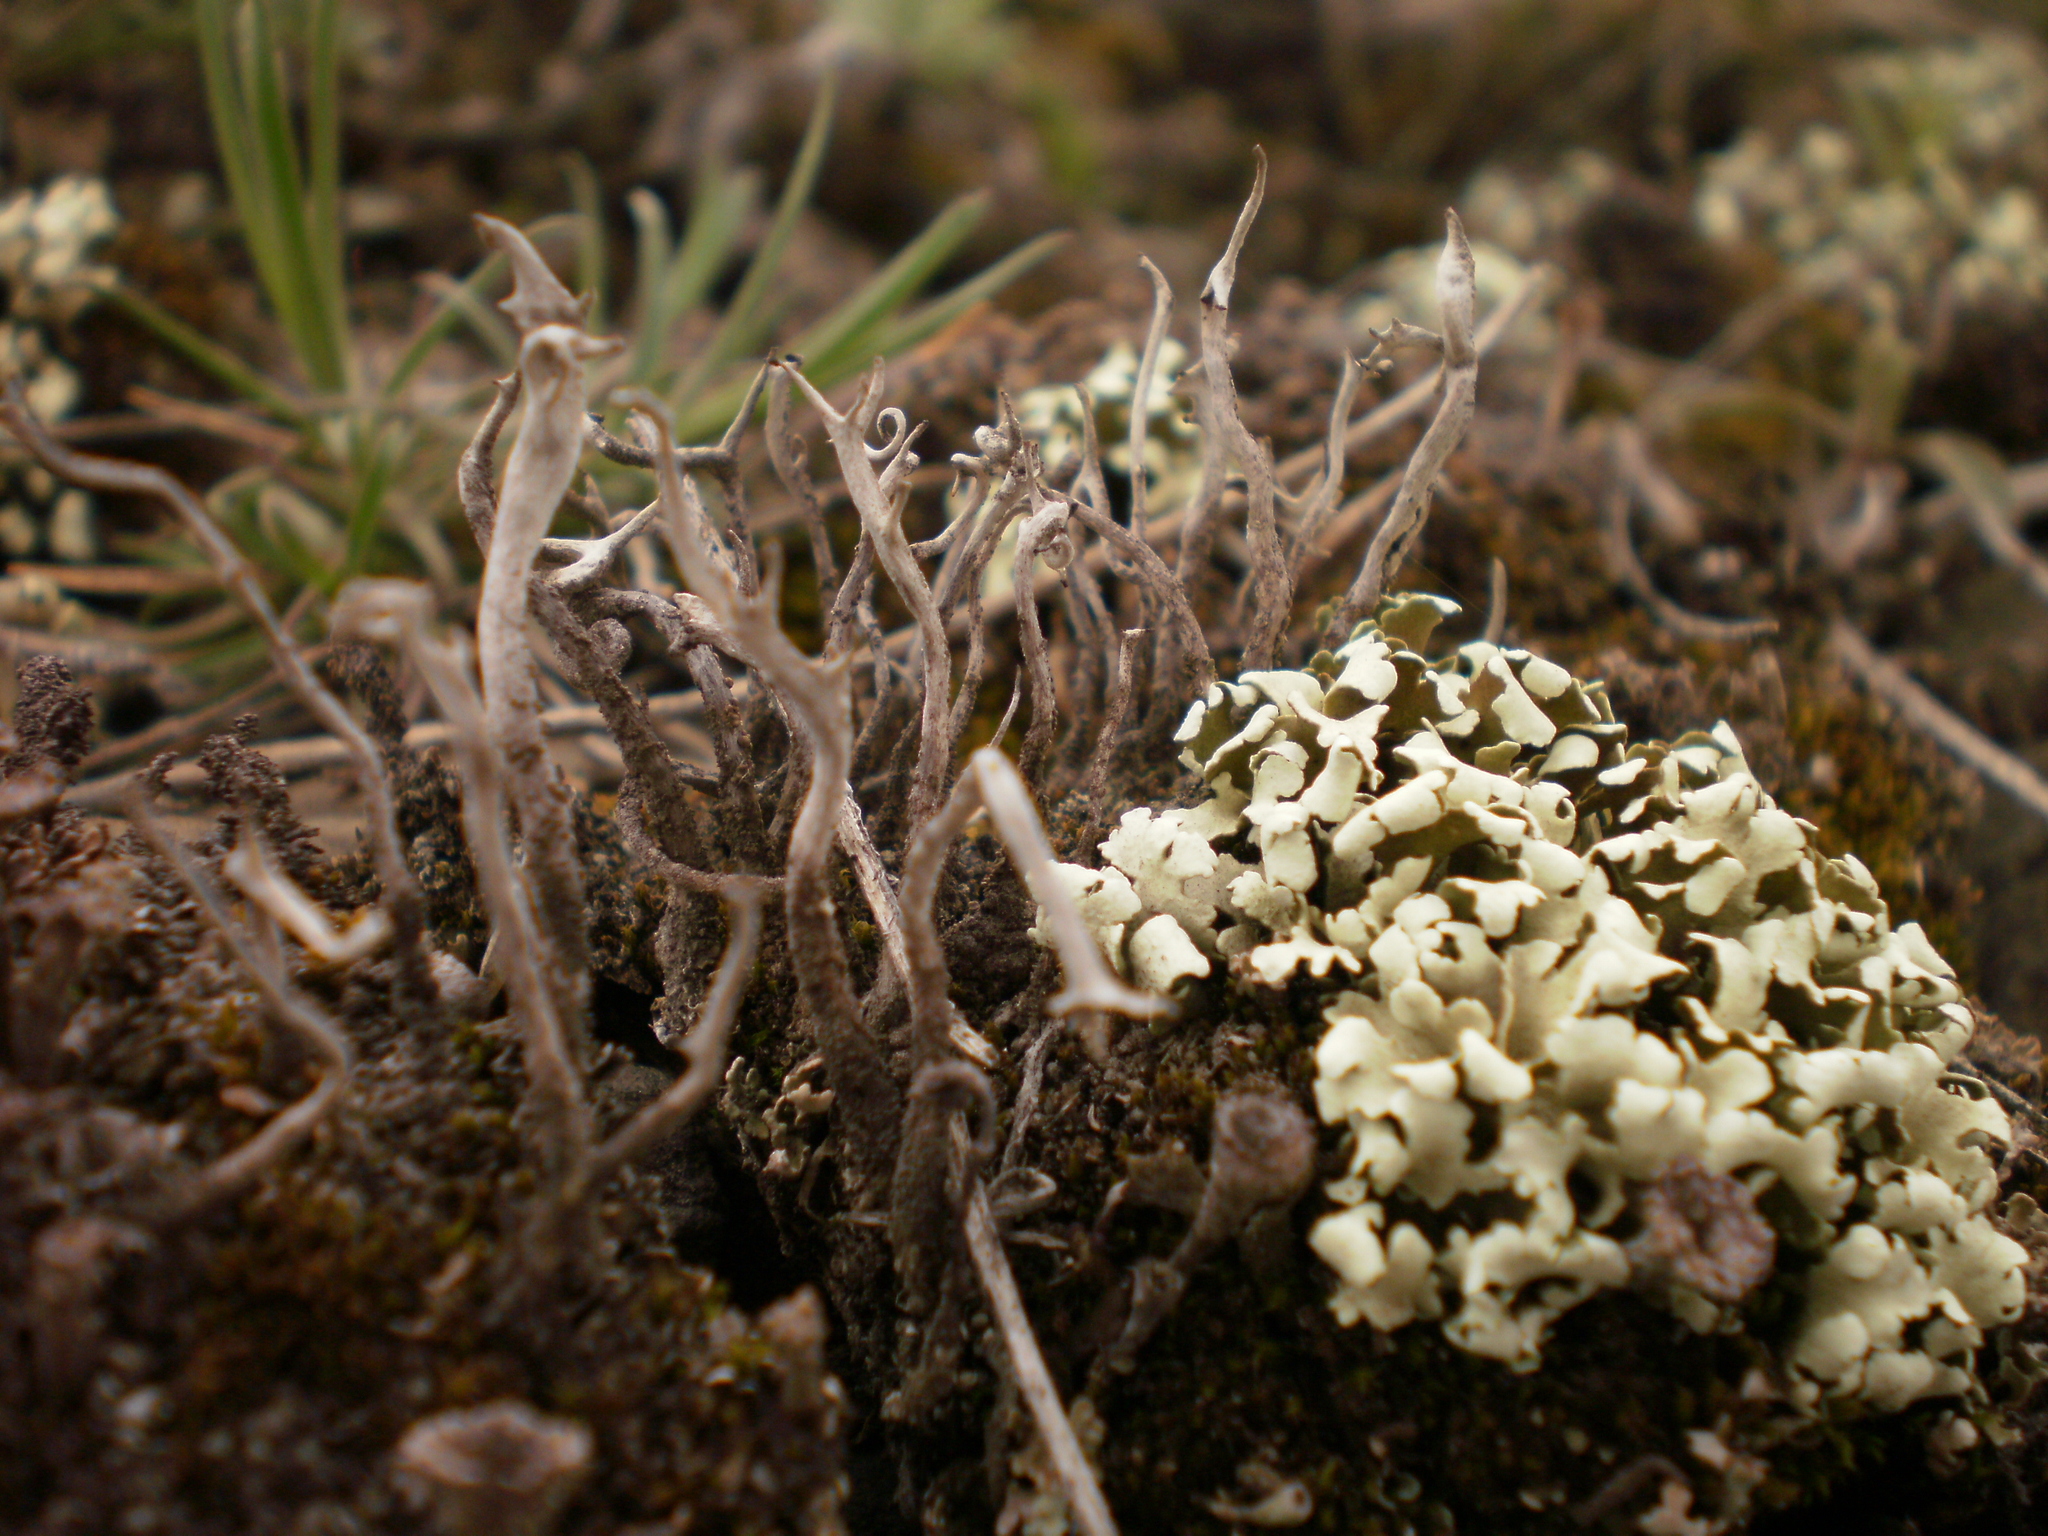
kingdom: Fungi
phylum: Ascomycota
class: Lecanoromycetes
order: Lecanorales
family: Cladoniaceae
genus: Cladonia
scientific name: Cladonia foliacea
